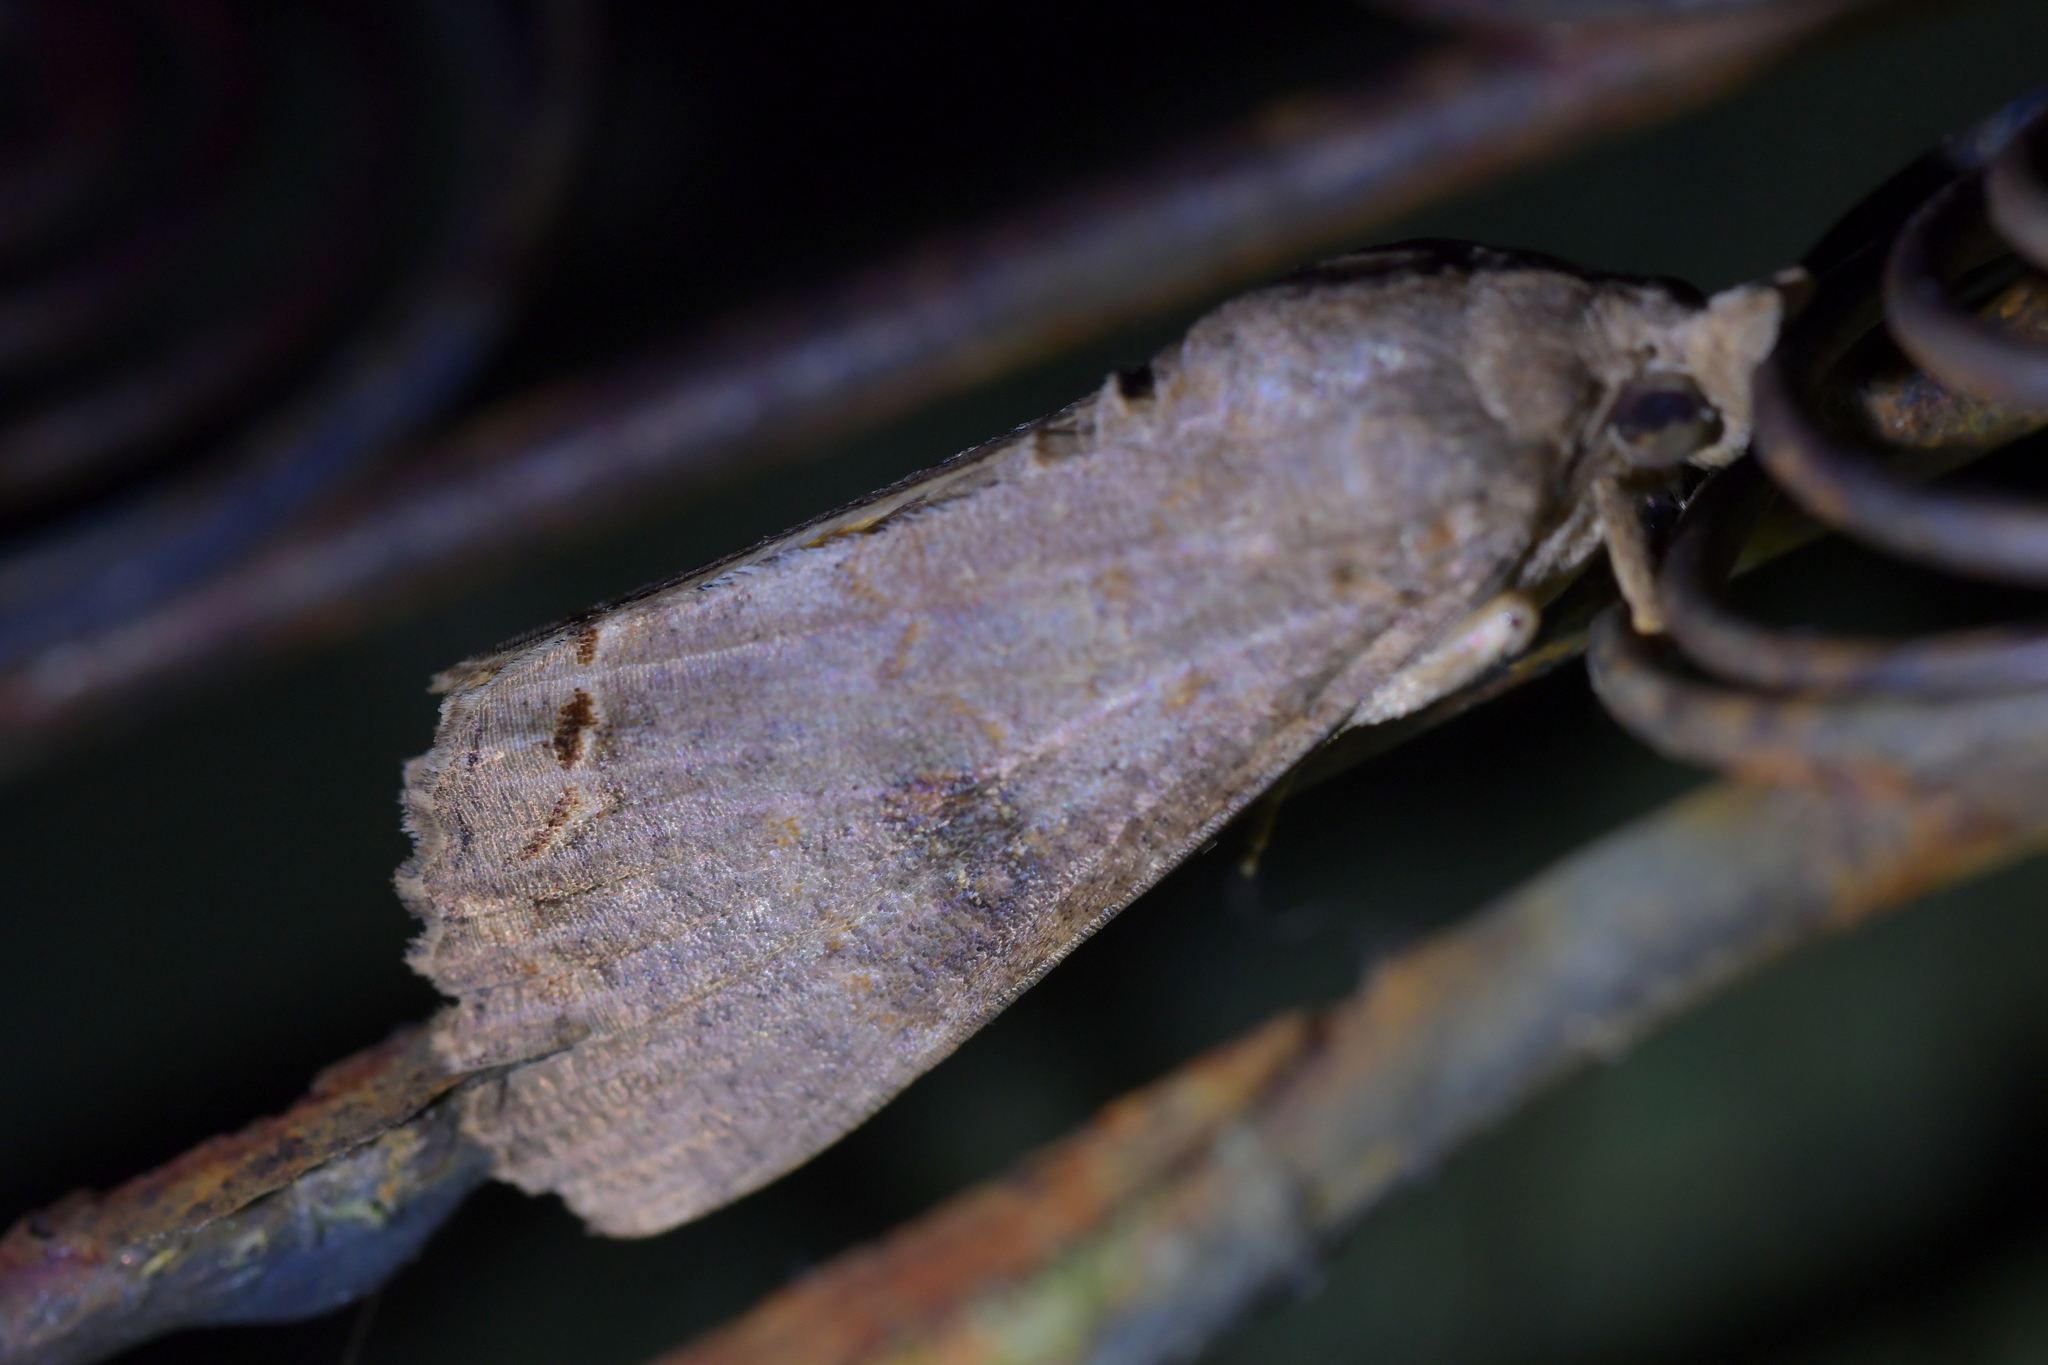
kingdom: Animalia
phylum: Arthropoda
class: Insecta
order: Lepidoptera
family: Erebidae
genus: Hypocala
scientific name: Hypocala deflorata
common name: Moth
